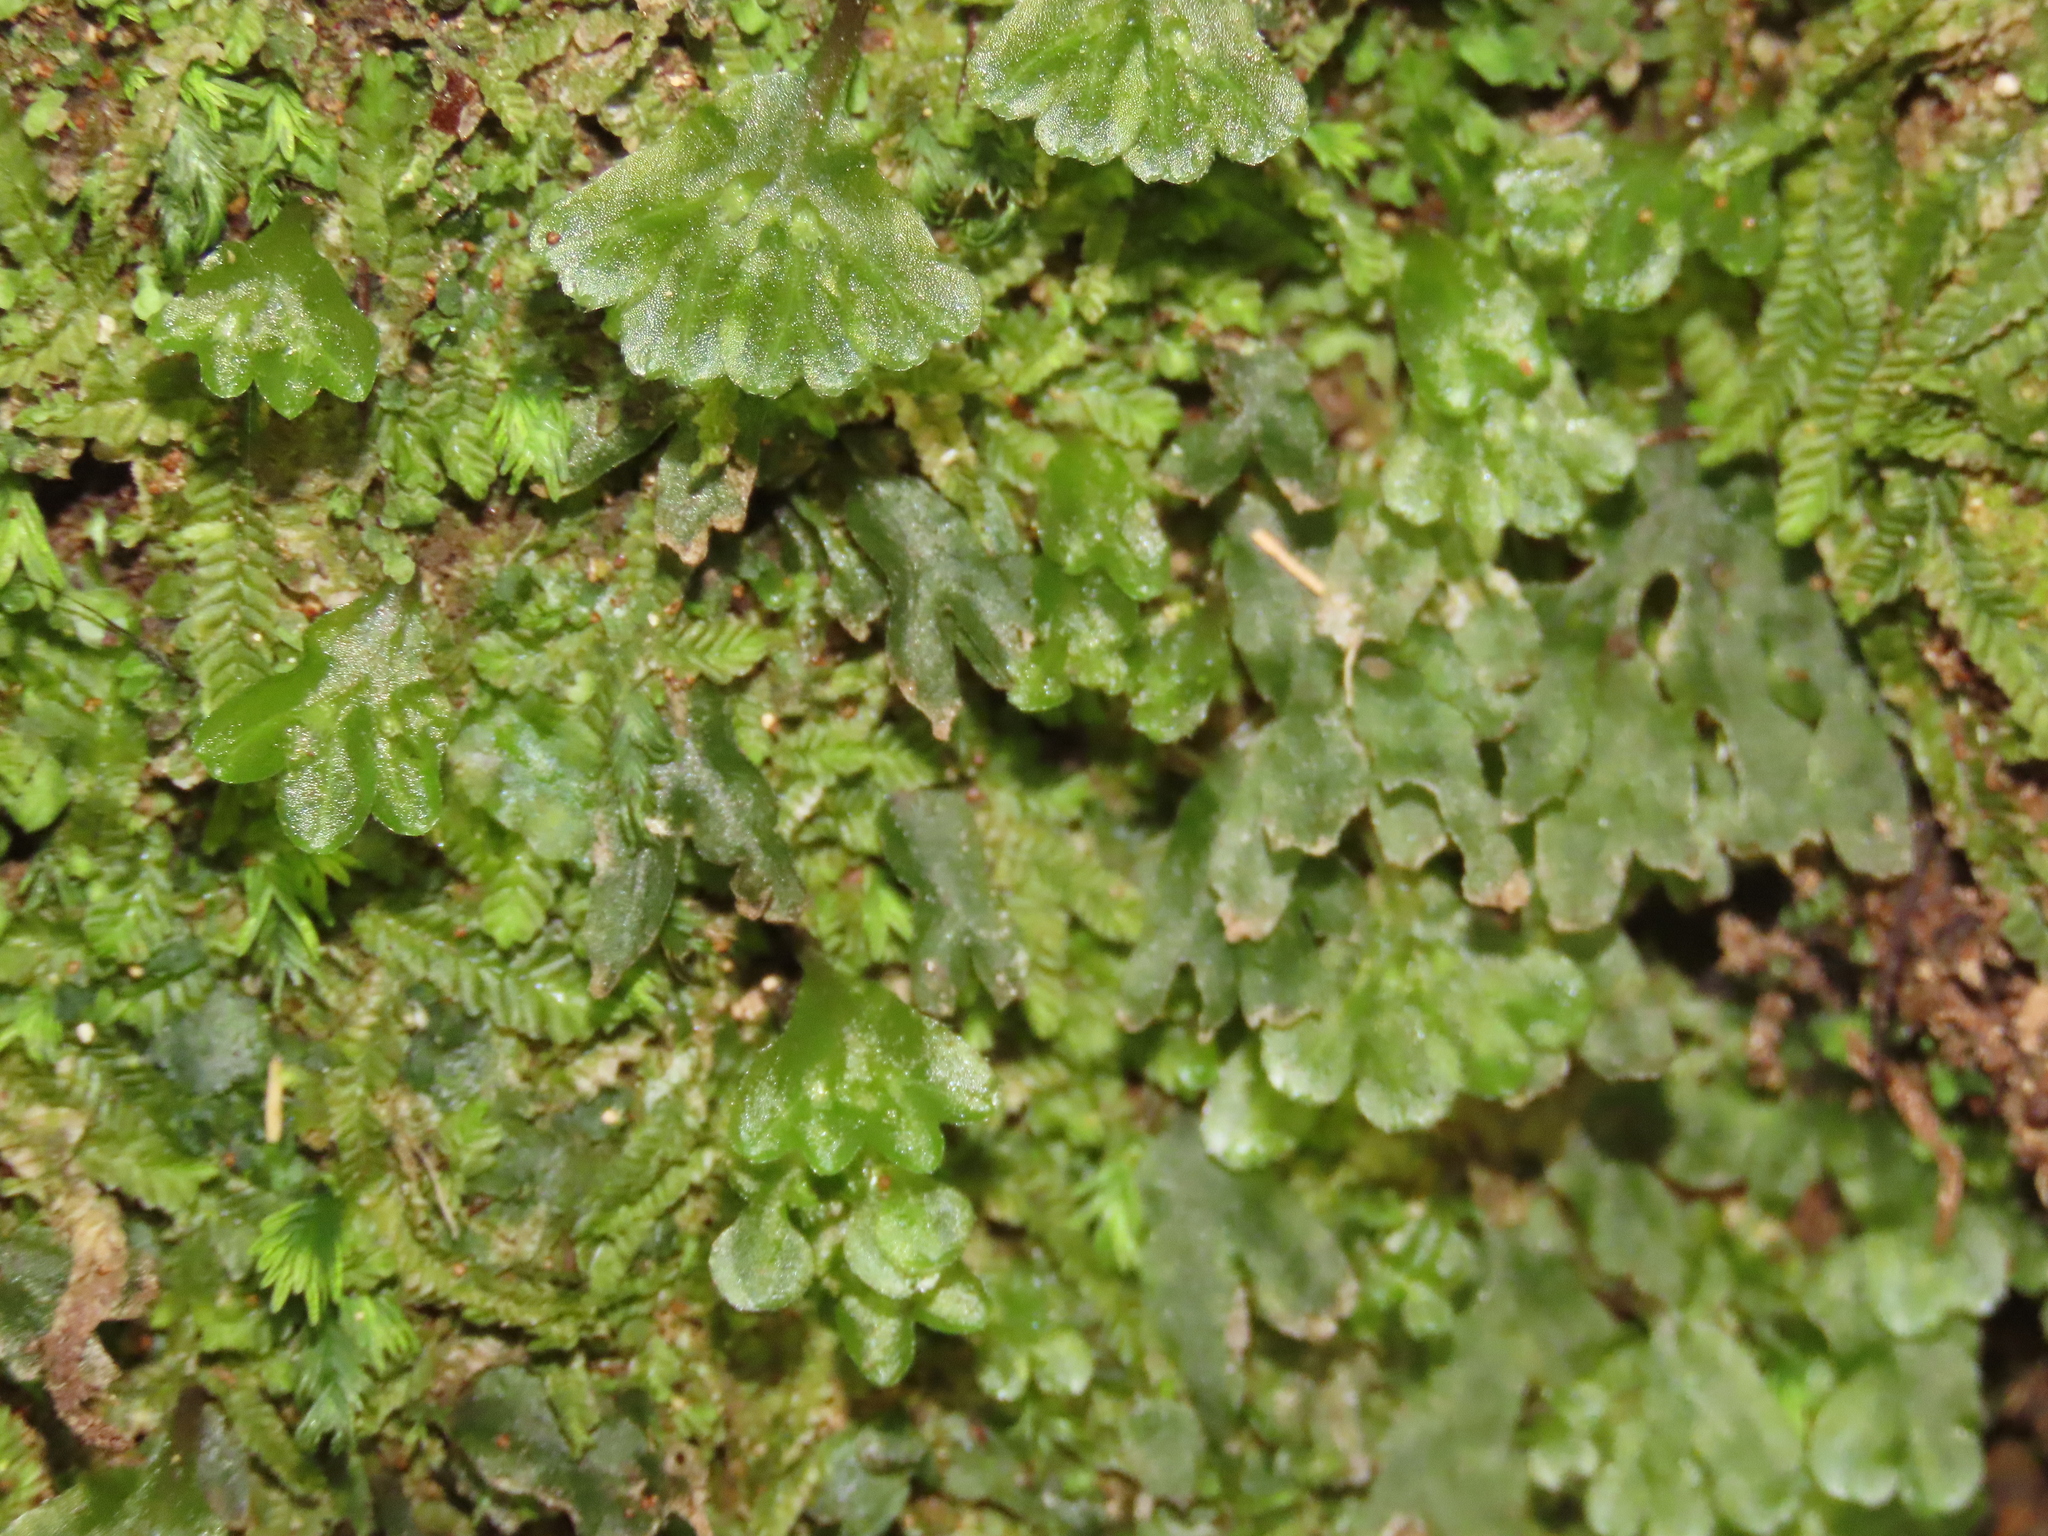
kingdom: Plantae
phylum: Marchantiophyta
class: Jungermanniopsida
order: Pallaviciniales
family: Pallaviciniaceae
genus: Symphyogyna
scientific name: Symphyogyna hymenophyllum
